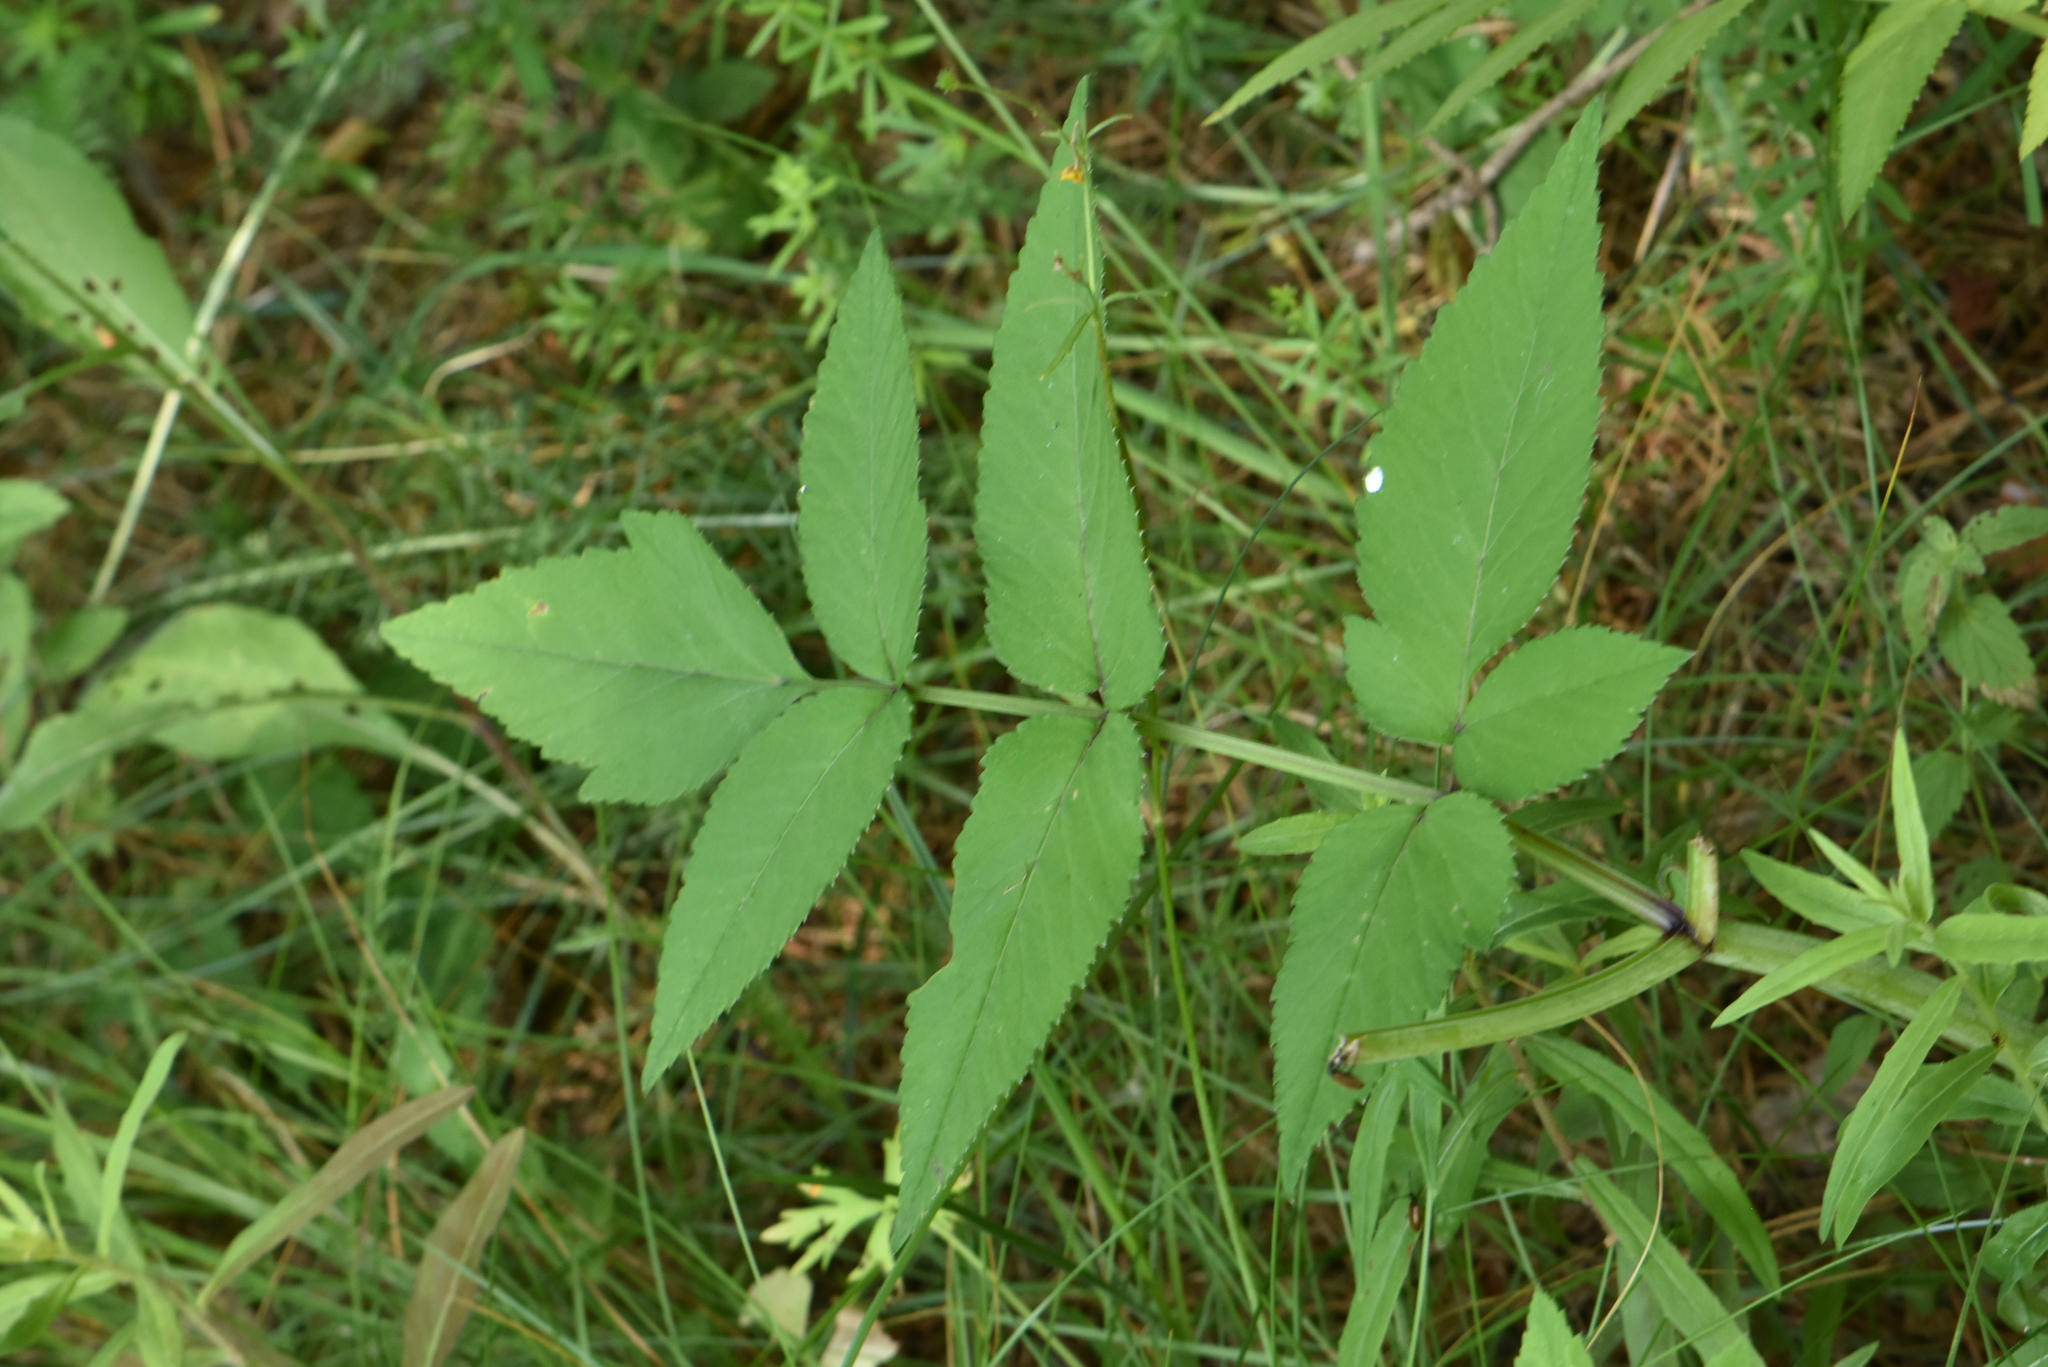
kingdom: Plantae
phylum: Tracheophyta
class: Magnoliopsida
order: Apiales
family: Apiaceae
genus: Angelica
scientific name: Angelica sylvestris
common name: Wild angelica
